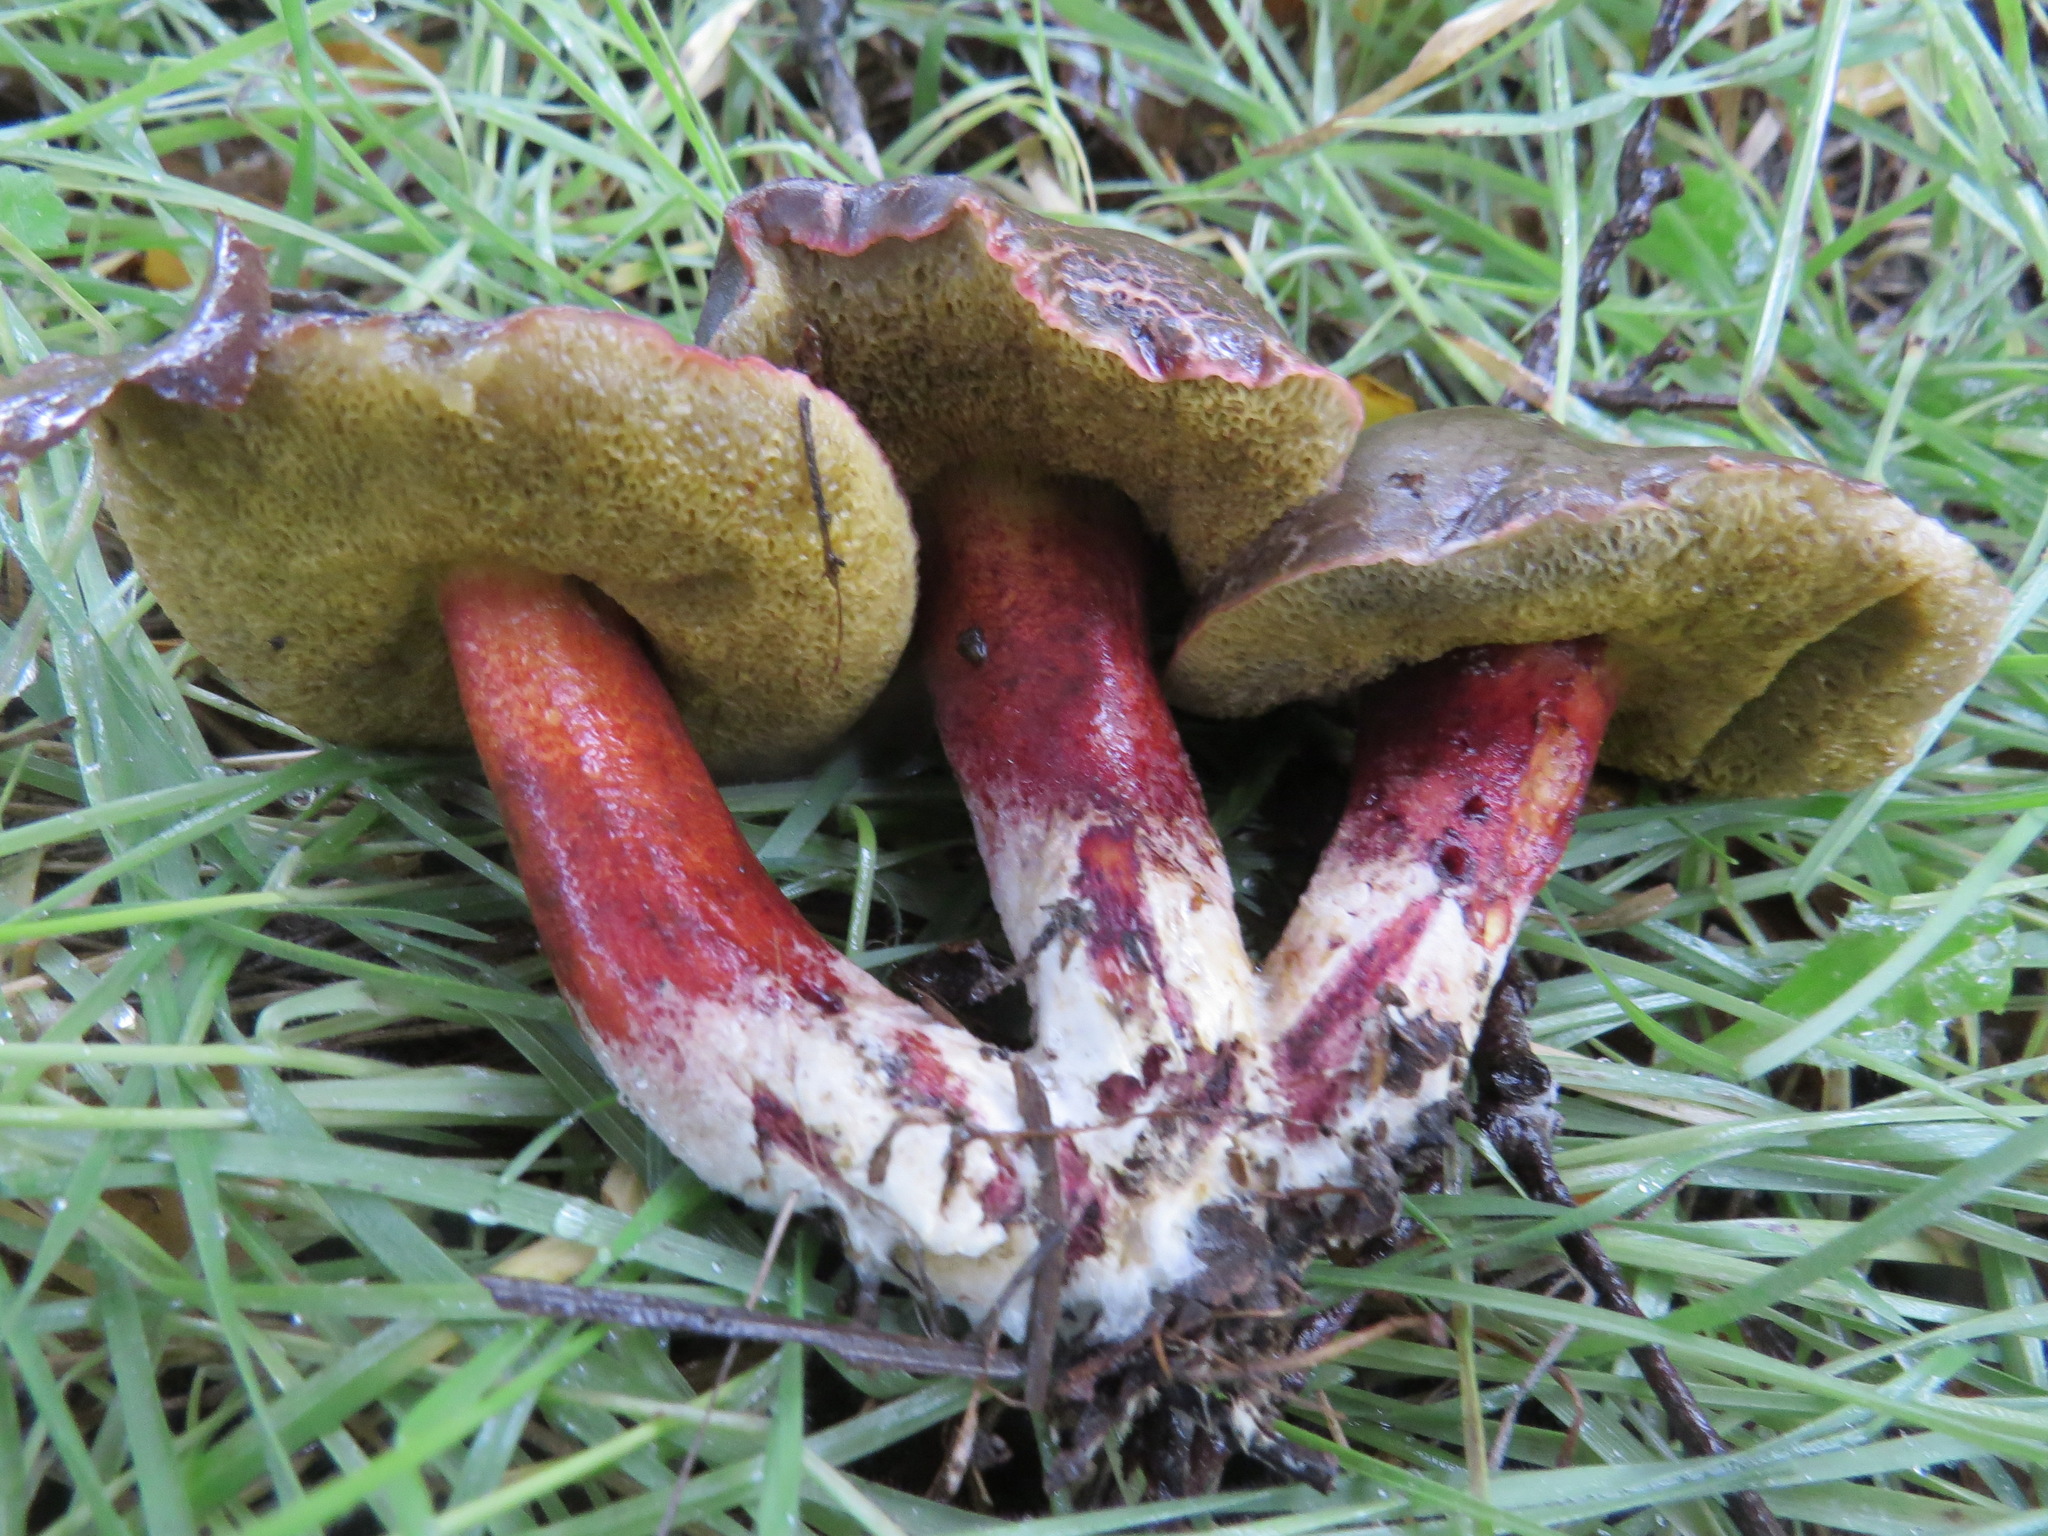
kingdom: Fungi
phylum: Basidiomycota
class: Agaricomycetes
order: Boletales
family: Boletaceae
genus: Xerocomellus
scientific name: Xerocomellus atropurpureus
